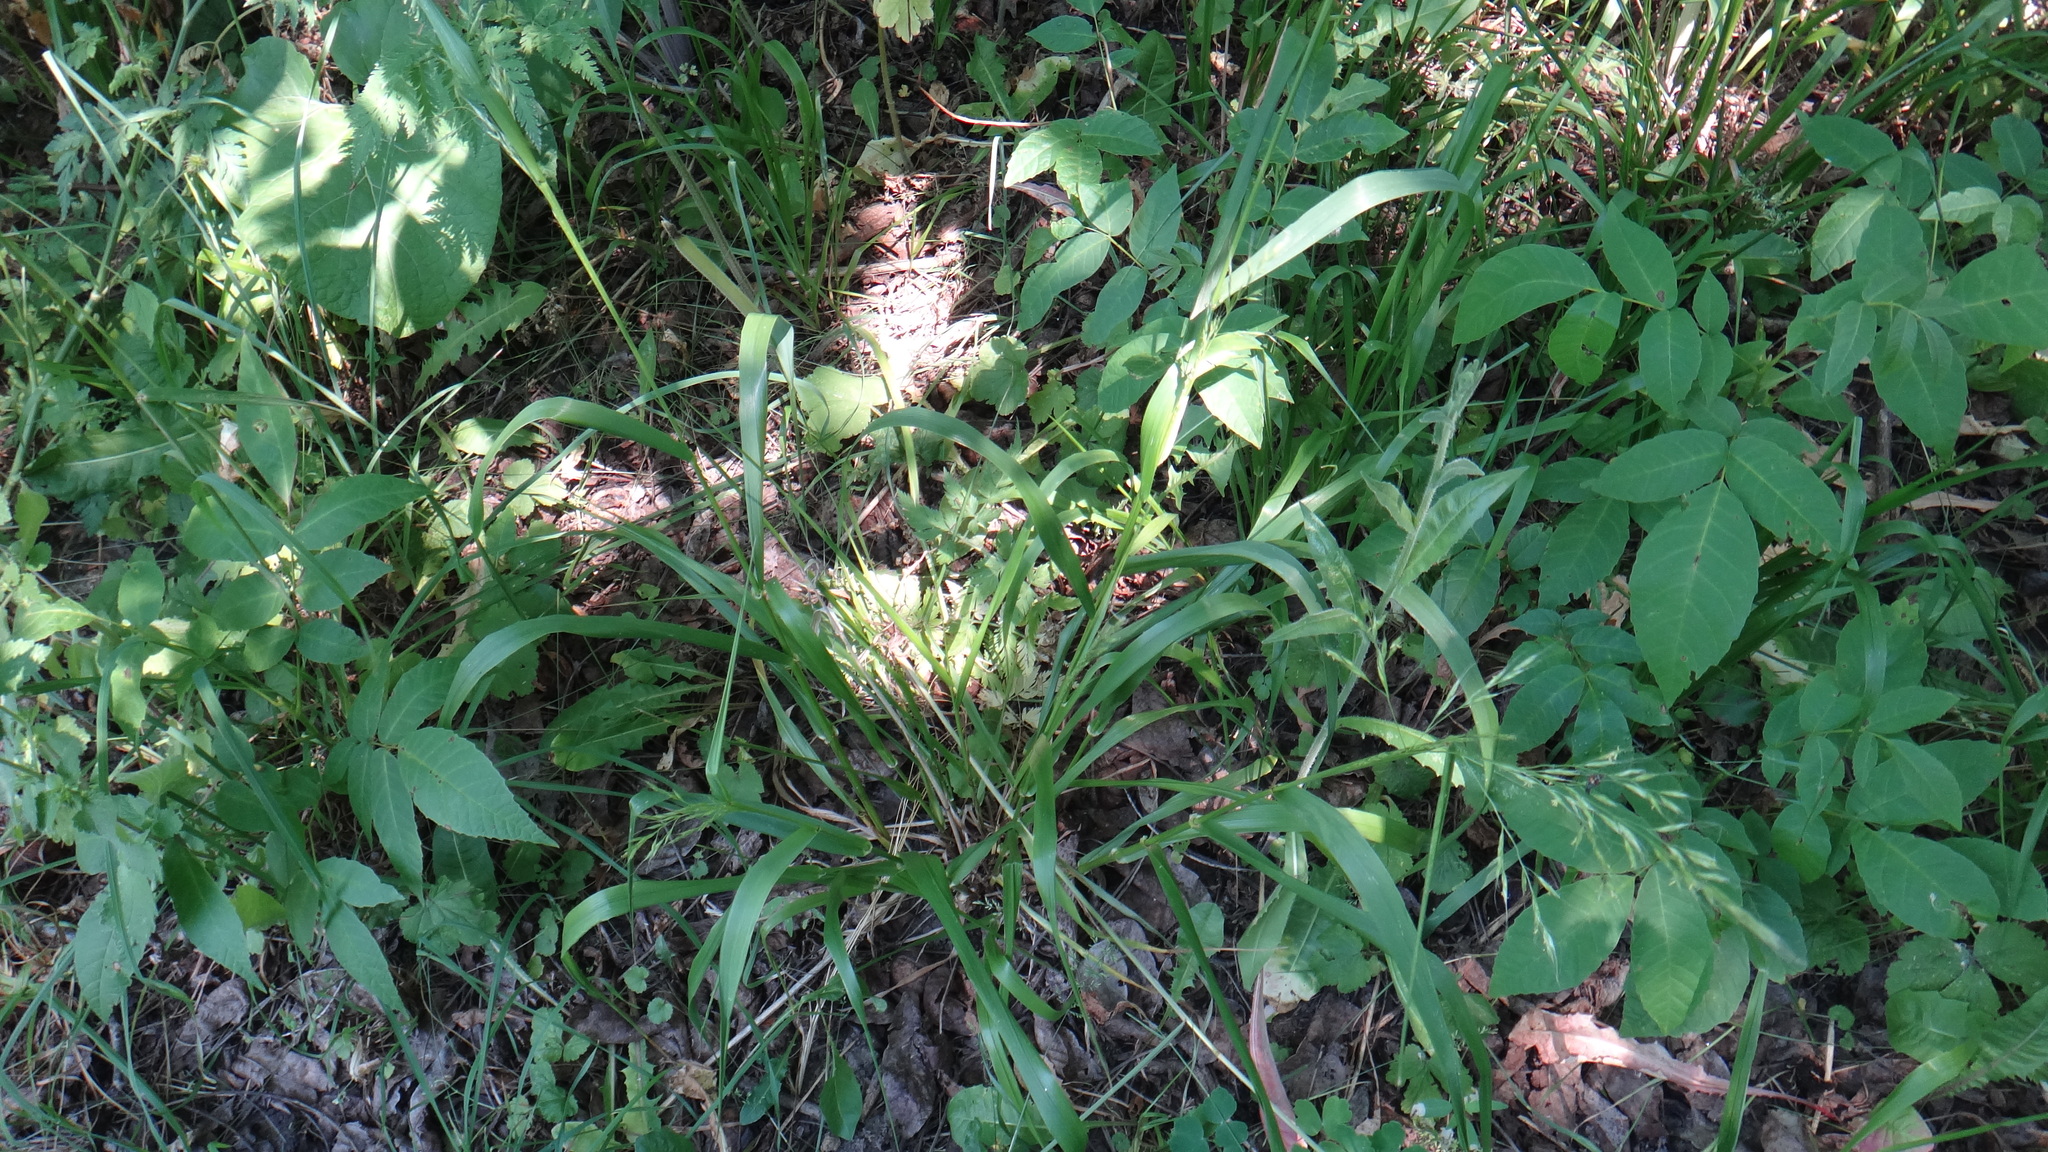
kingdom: Plantae
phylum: Tracheophyta
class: Liliopsida
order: Poales
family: Poaceae
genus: Lolium
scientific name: Lolium giganteum
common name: Giant fescue
